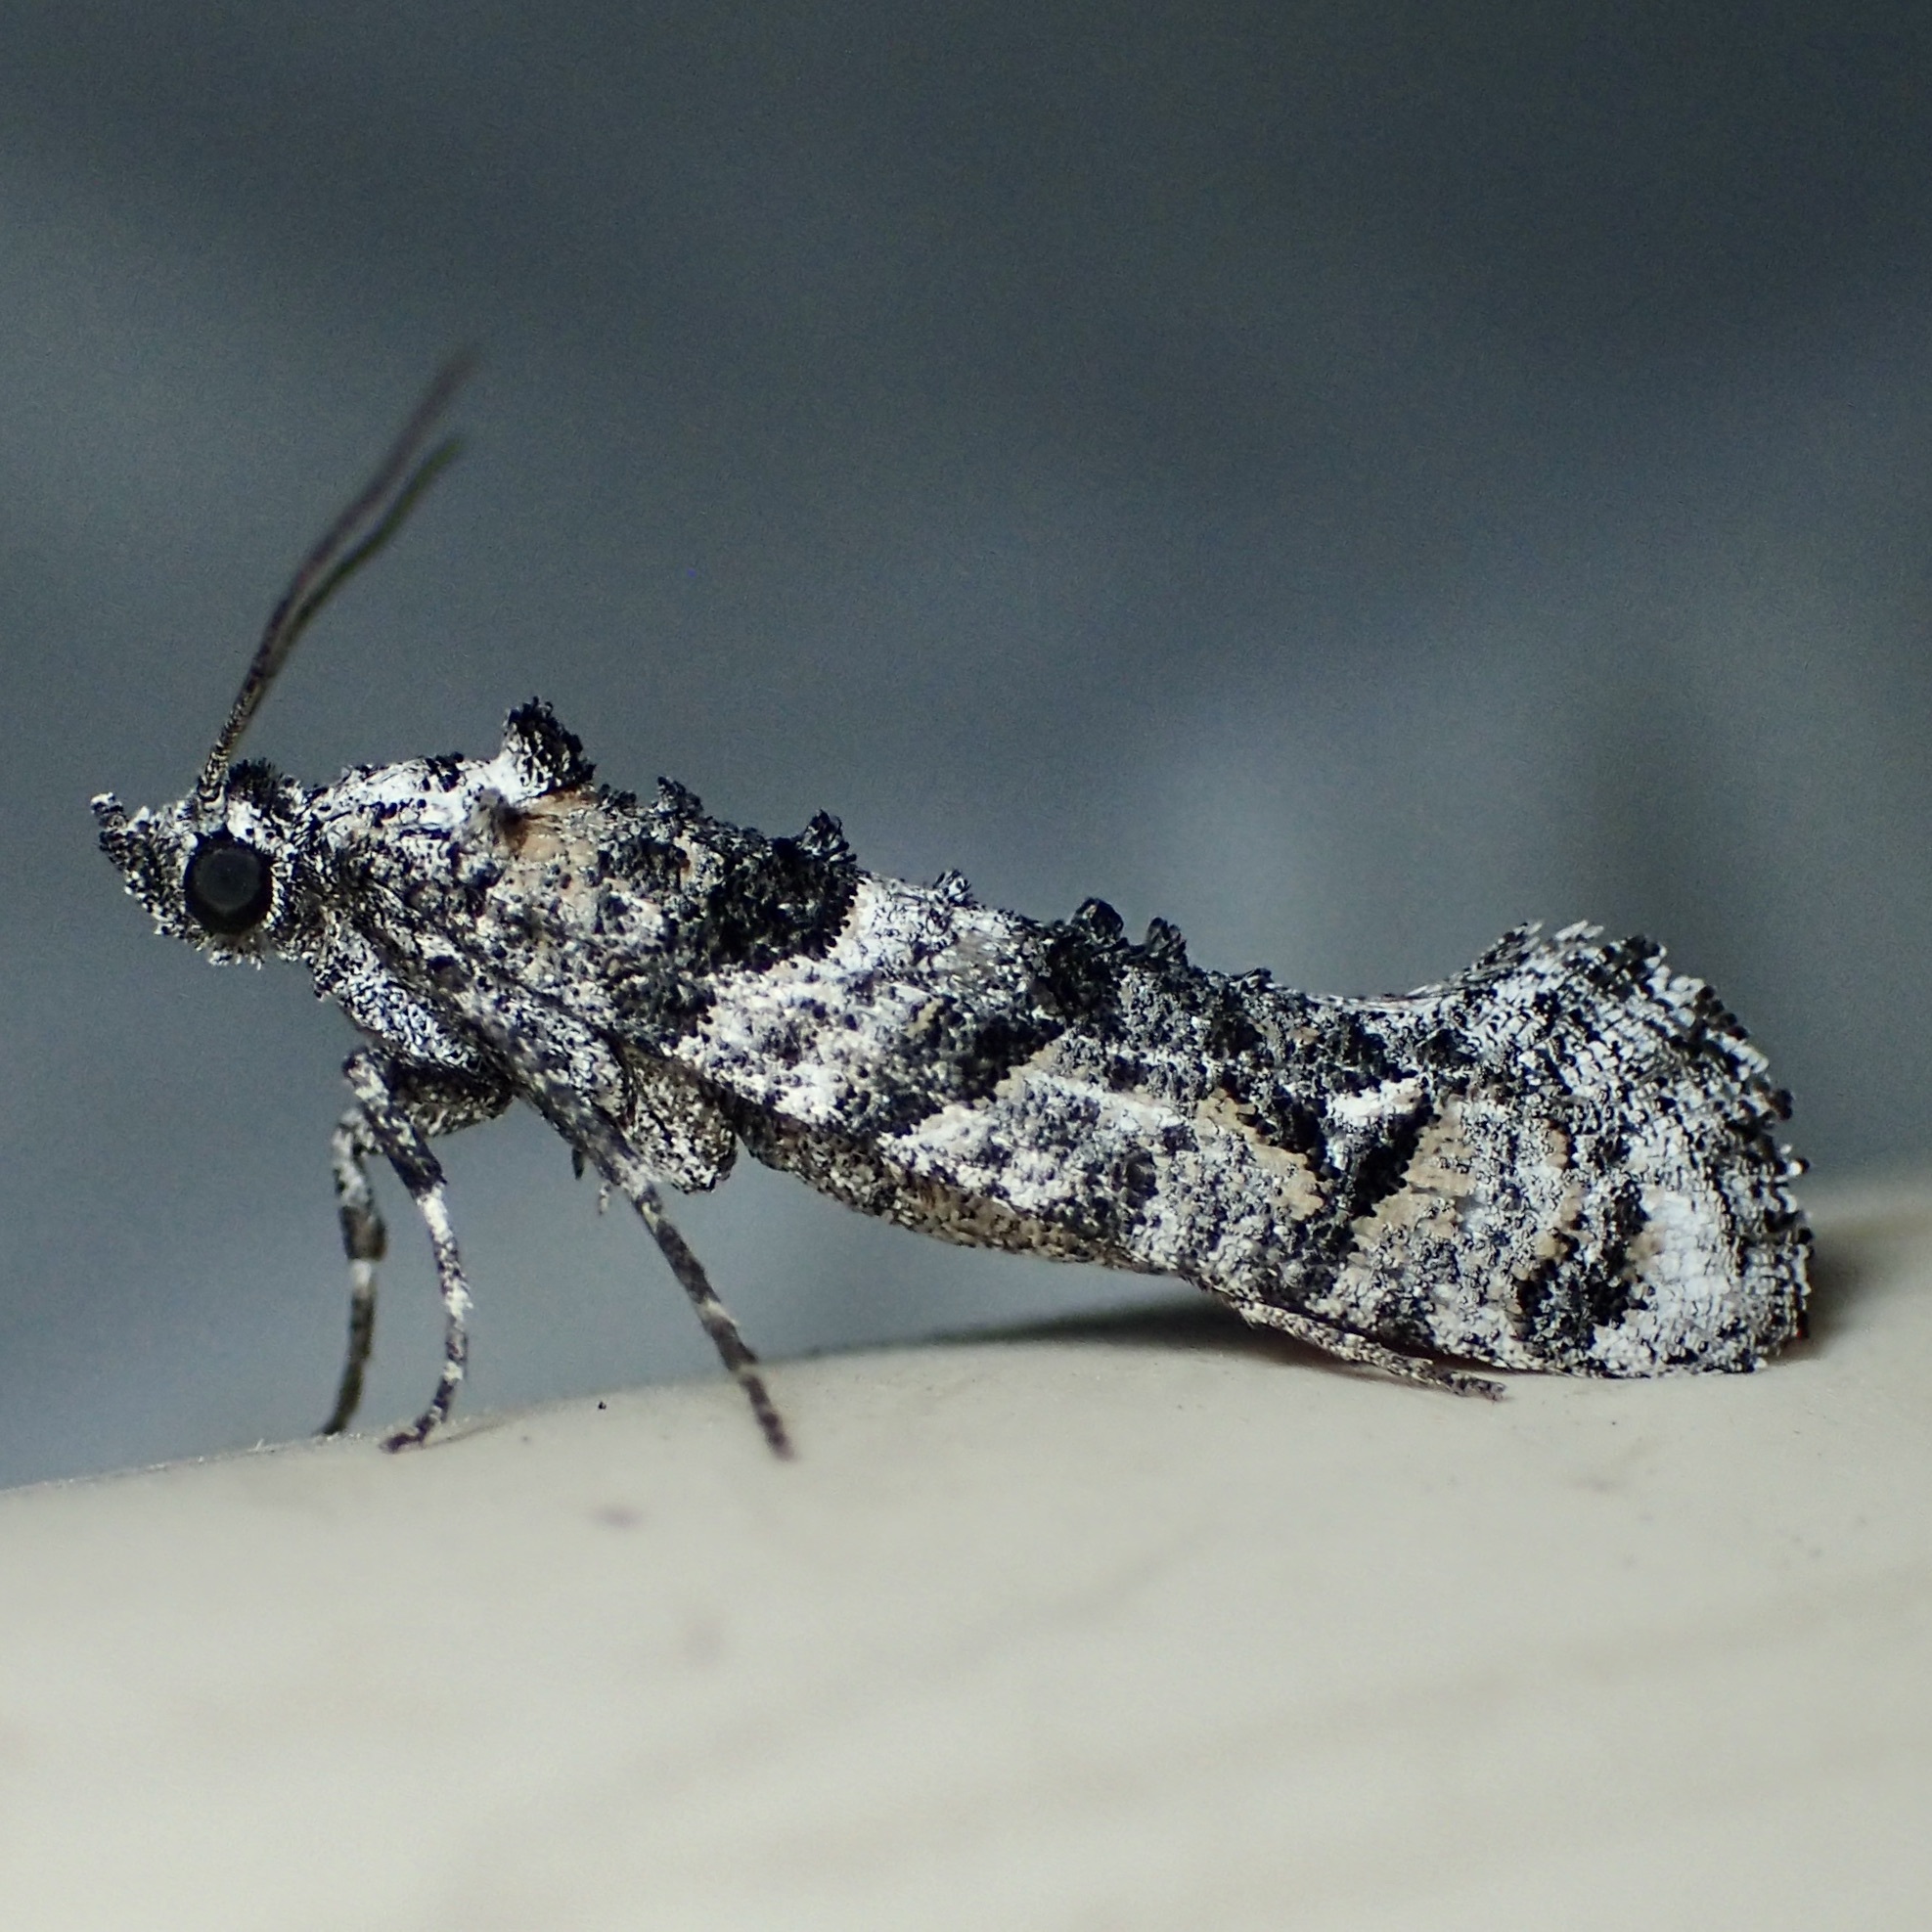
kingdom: Animalia
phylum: Arthropoda
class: Insecta
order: Lepidoptera
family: Tineidae
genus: Dyotopasta
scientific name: Dyotopasta yumaella
